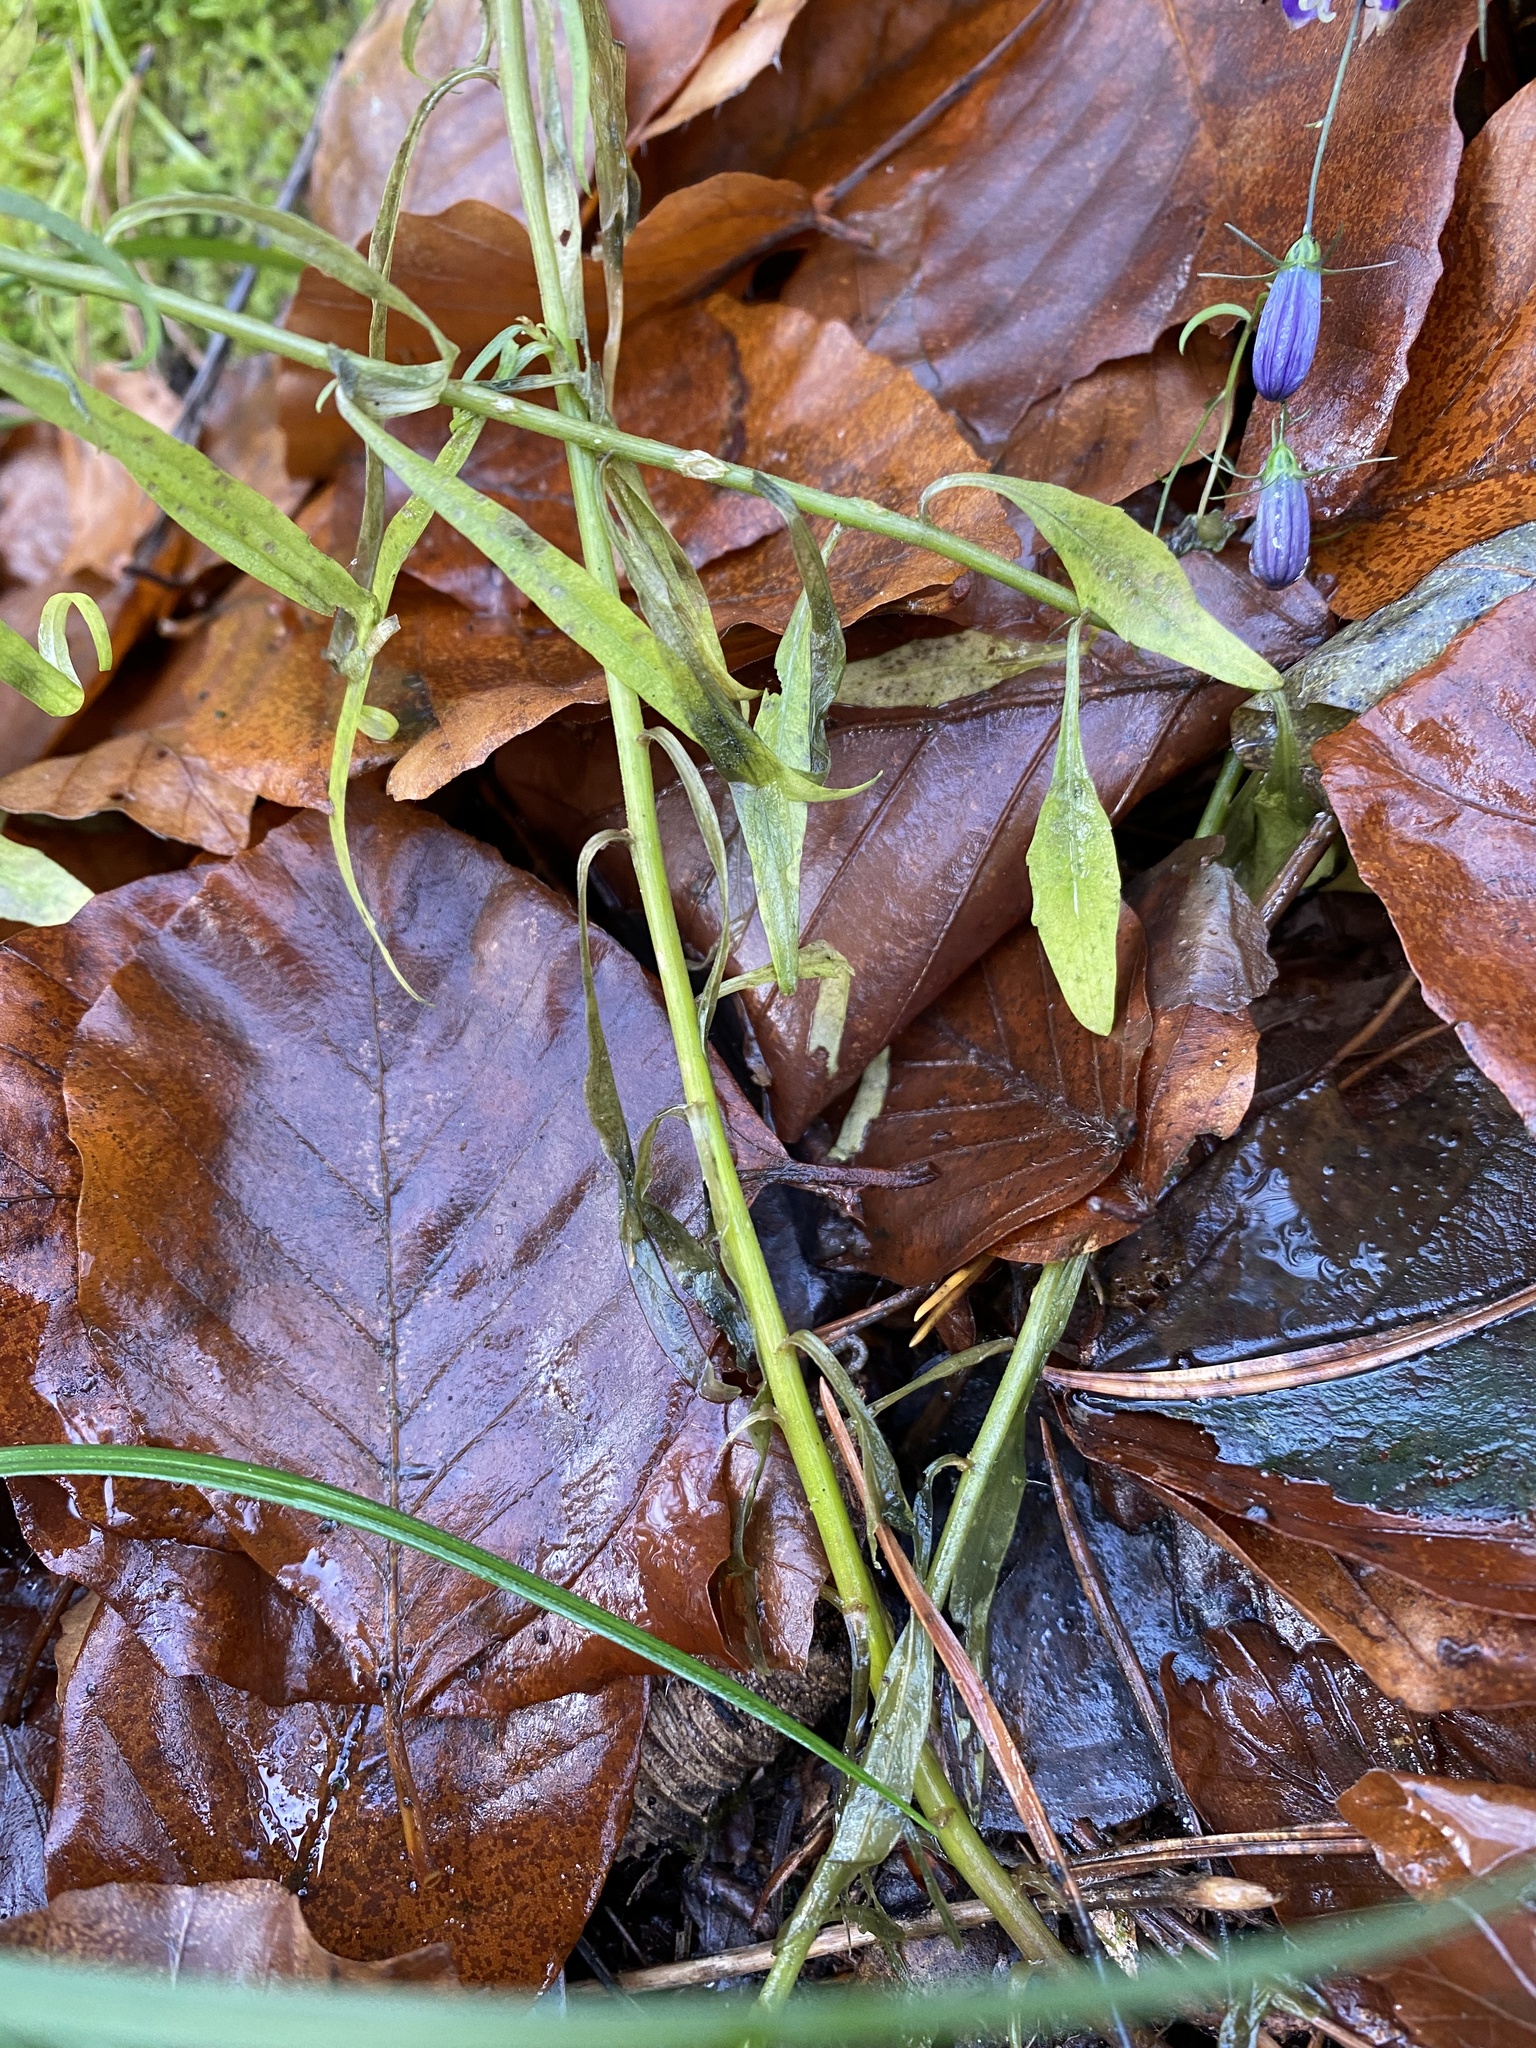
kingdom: Plantae
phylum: Tracheophyta
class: Magnoliopsida
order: Asterales
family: Campanulaceae
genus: Campanula
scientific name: Campanula rotundifolia
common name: Harebell
